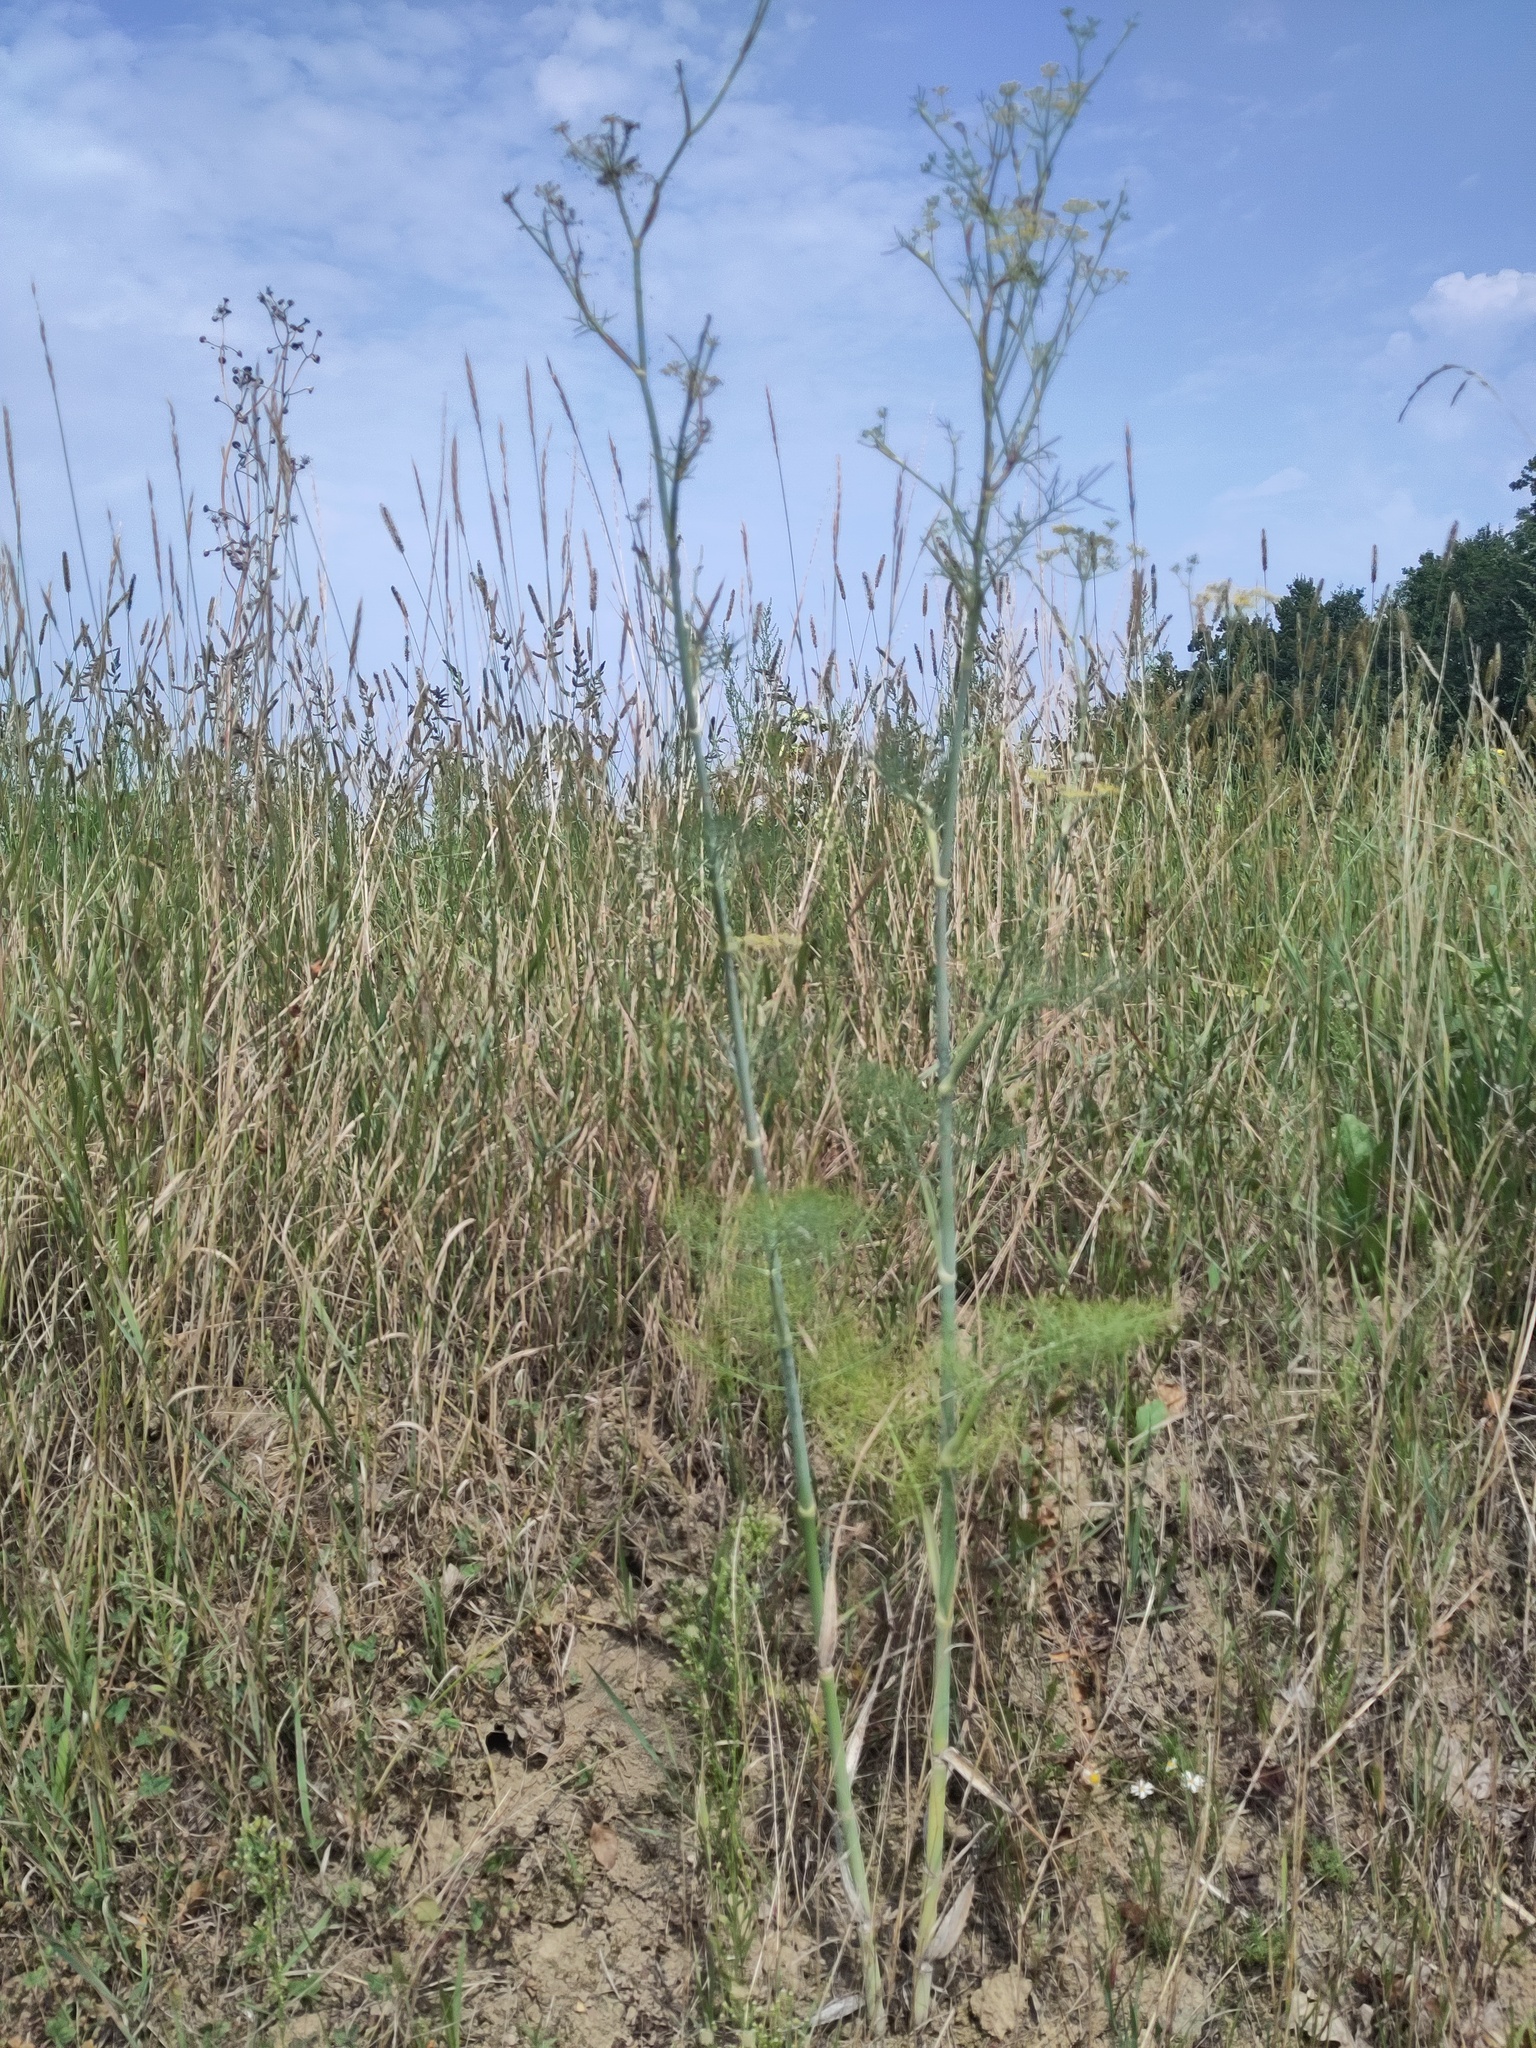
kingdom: Plantae
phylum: Tracheophyta
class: Magnoliopsida
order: Apiales
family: Apiaceae
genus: Foeniculum
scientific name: Foeniculum vulgare
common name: Fennel
